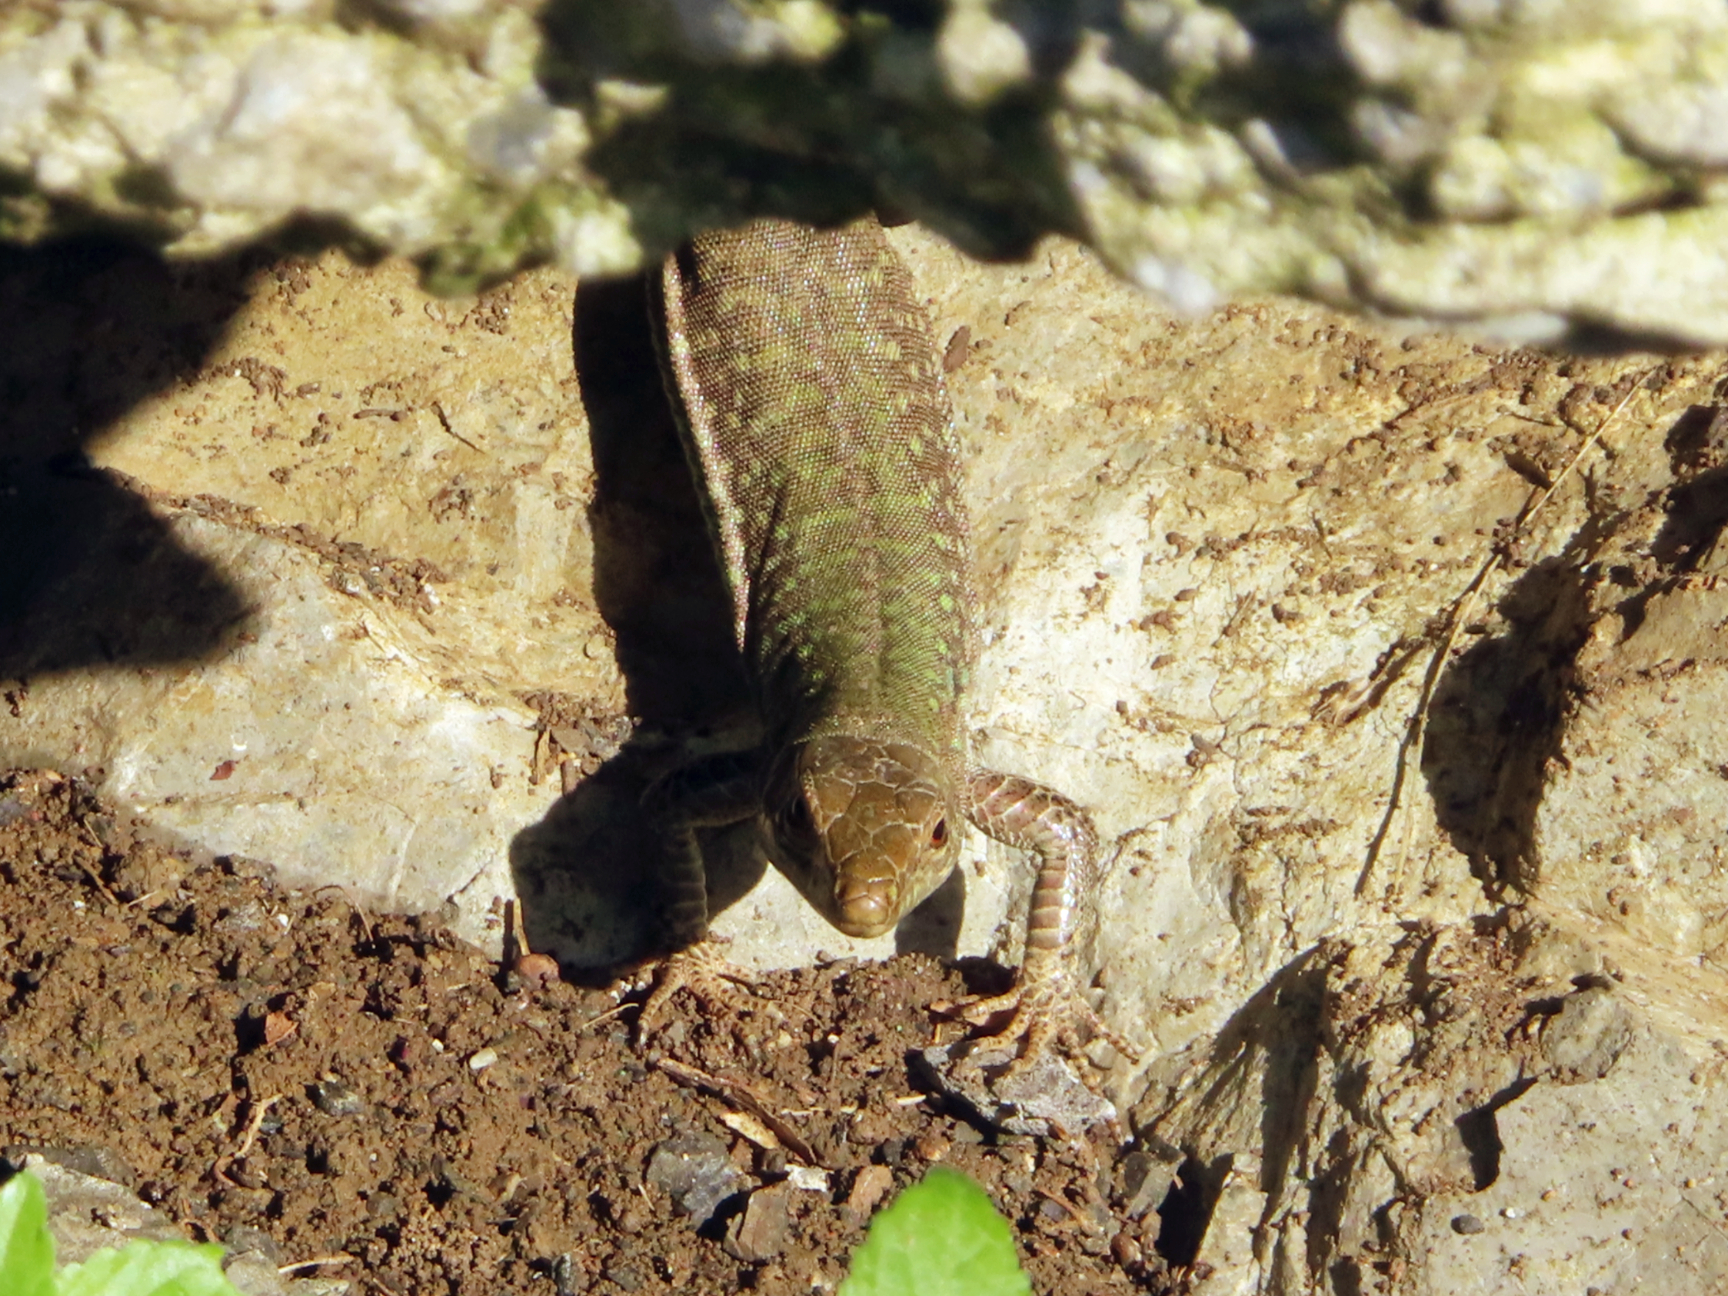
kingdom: Animalia
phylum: Chordata
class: Squamata
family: Lacertidae
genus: Podarcis
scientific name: Podarcis siculus
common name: Italian wall lizard
